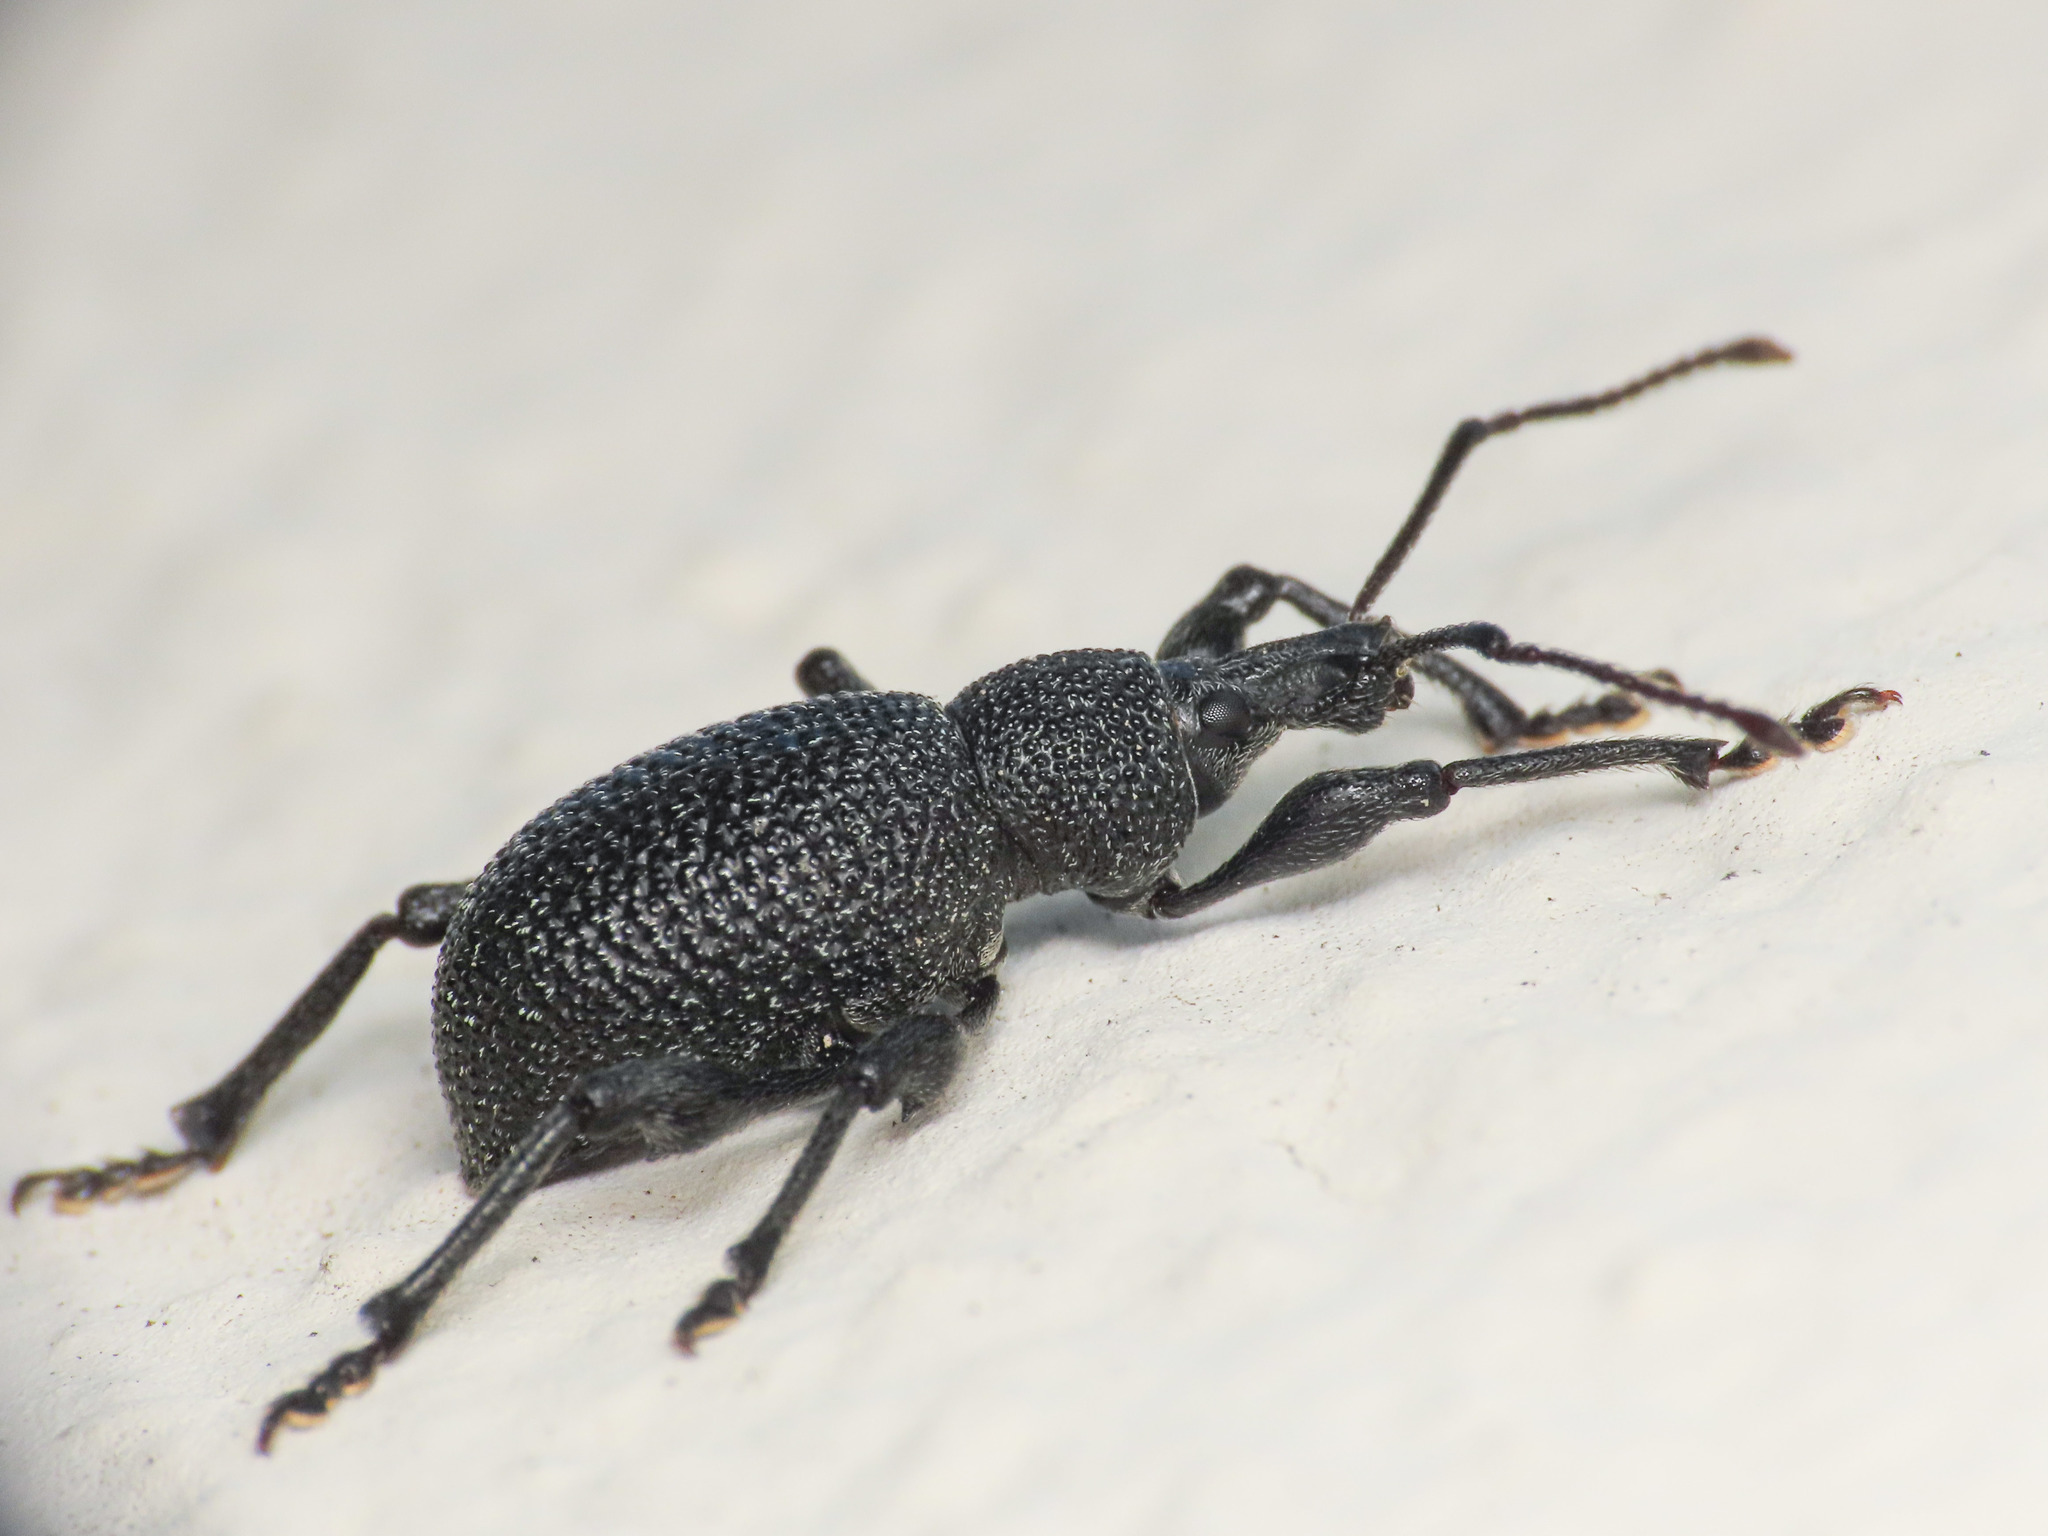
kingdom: Animalia
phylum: Arthropoda
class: Insecta
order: Coleoptera
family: Curculionidae
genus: Otiorhynchus
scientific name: Otiorhynchus armatus
